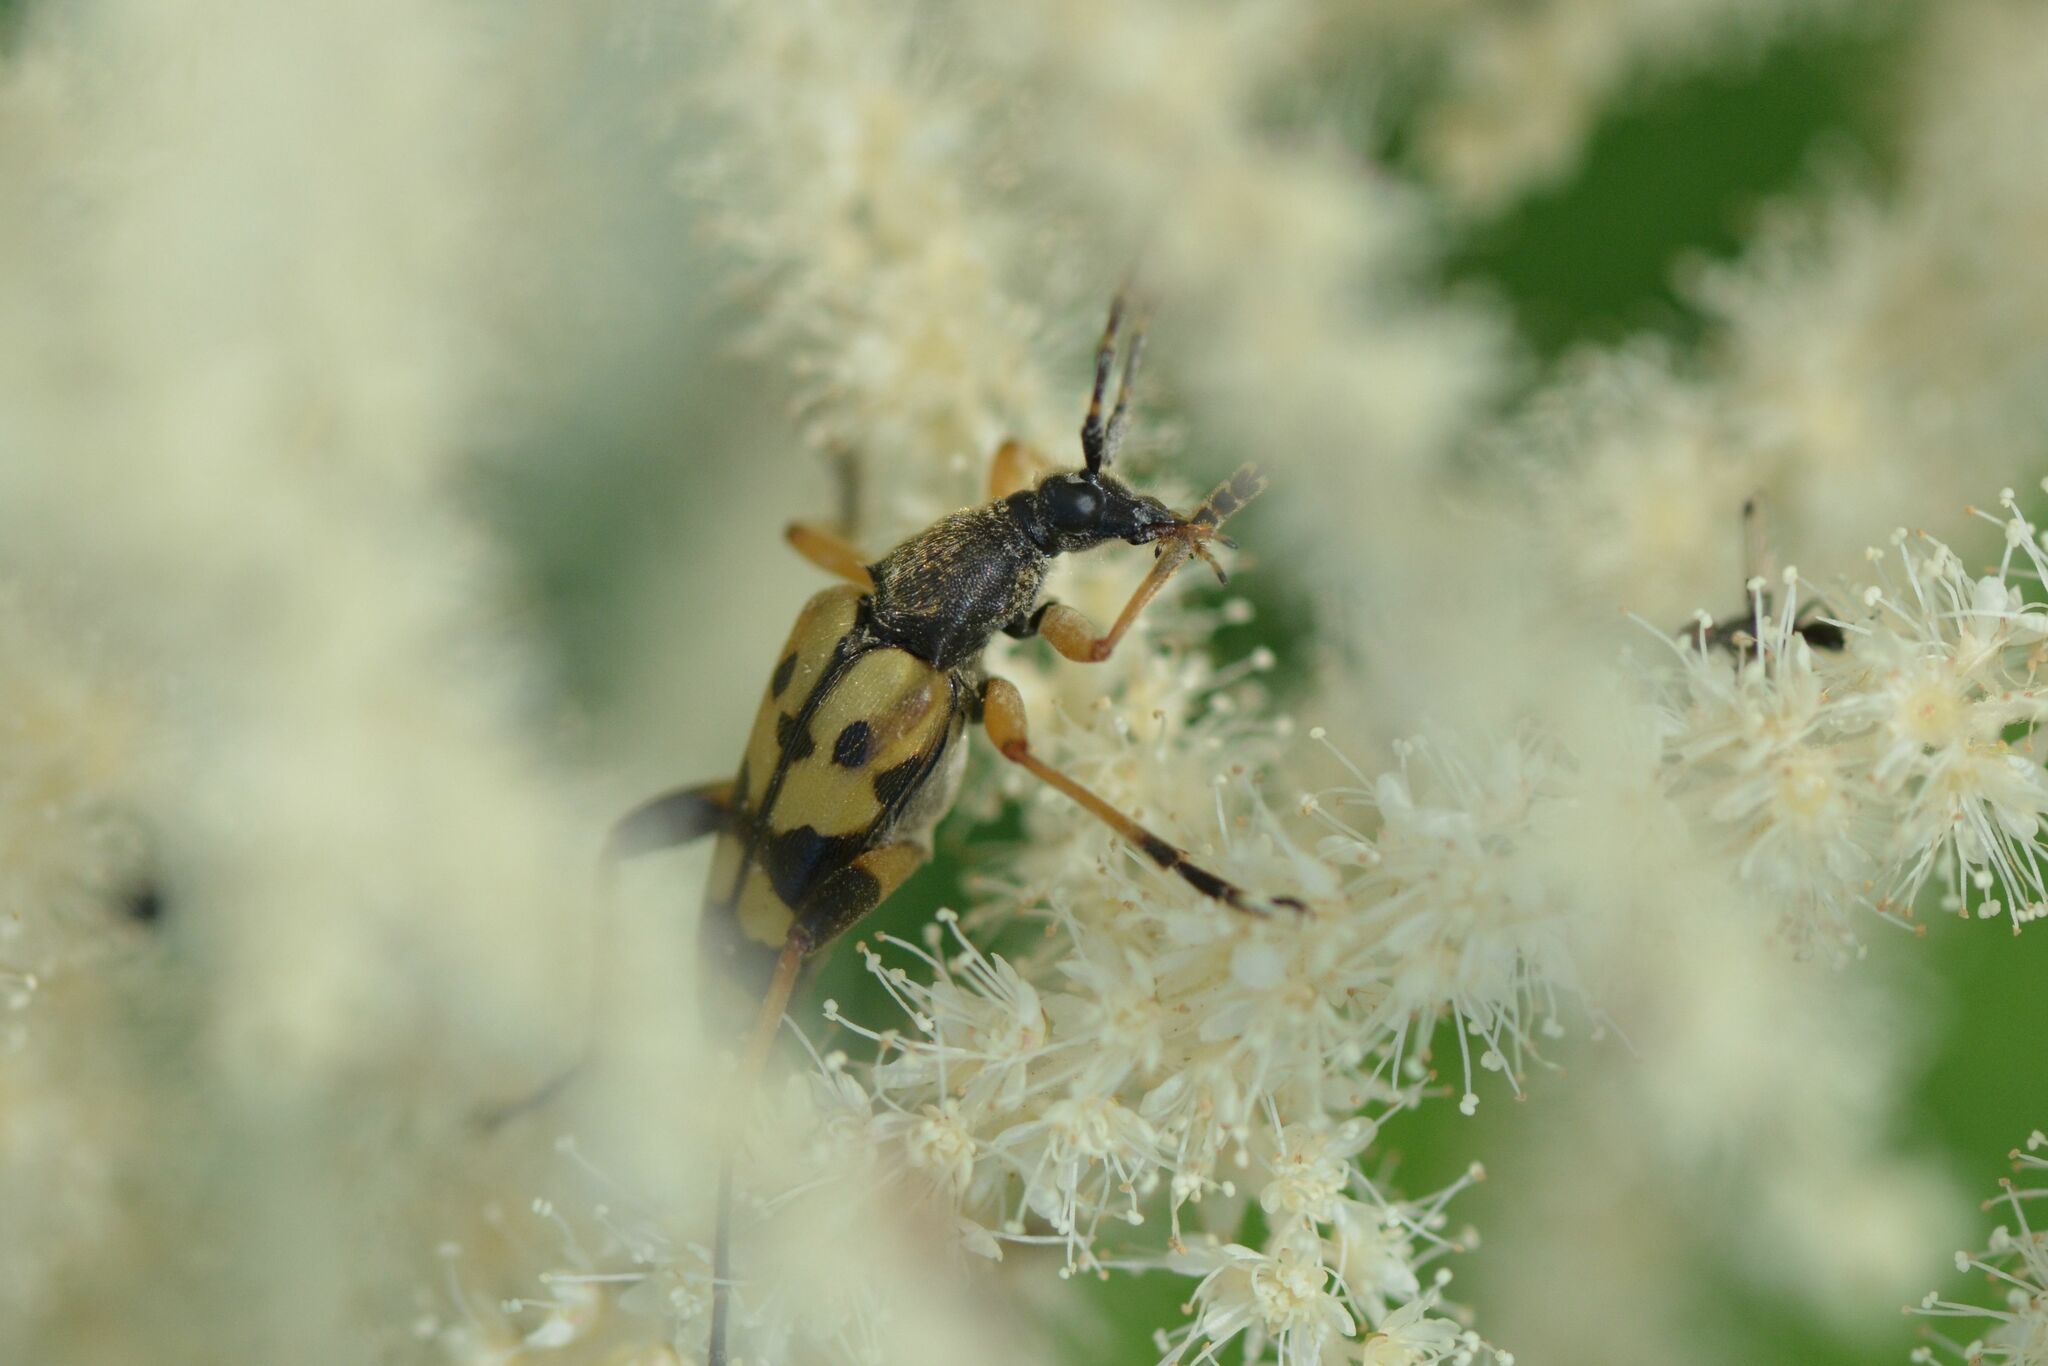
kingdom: Animalia
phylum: Arthropoda
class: Insecta
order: Coleoptera
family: Cerambycidae
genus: Rutpela
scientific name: Rutpela maculata
